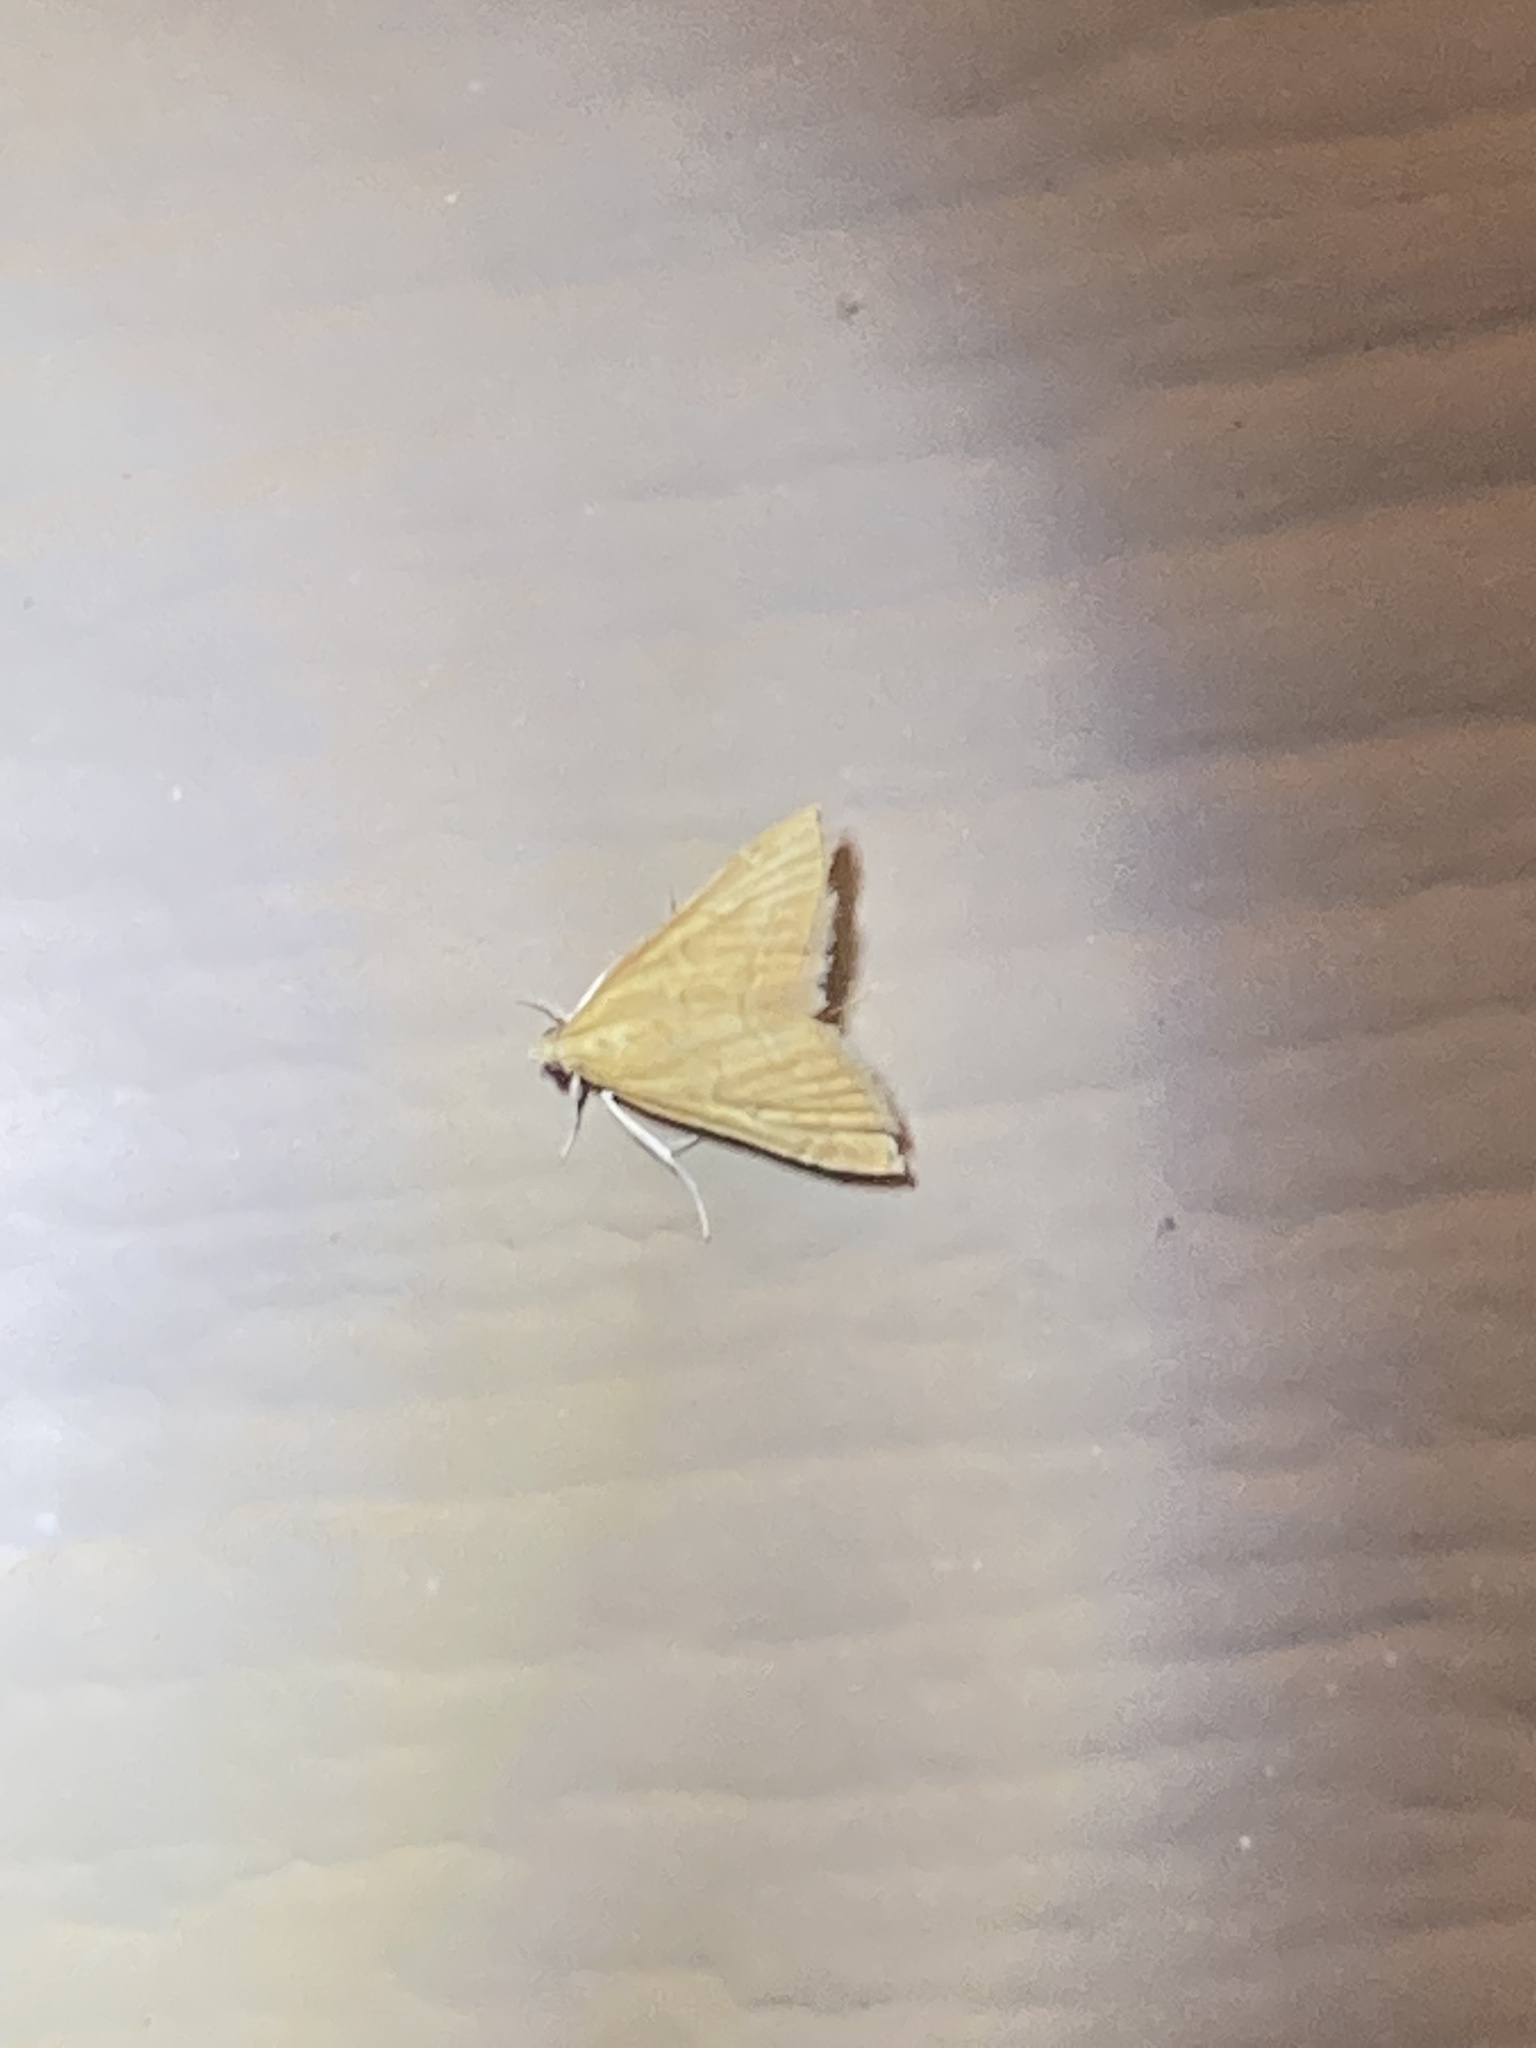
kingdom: Animalia
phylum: Arthropoda
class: Insecta
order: Lepidoptera
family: Crambidae
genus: Glaphyria
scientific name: Glaphyria invisalis
